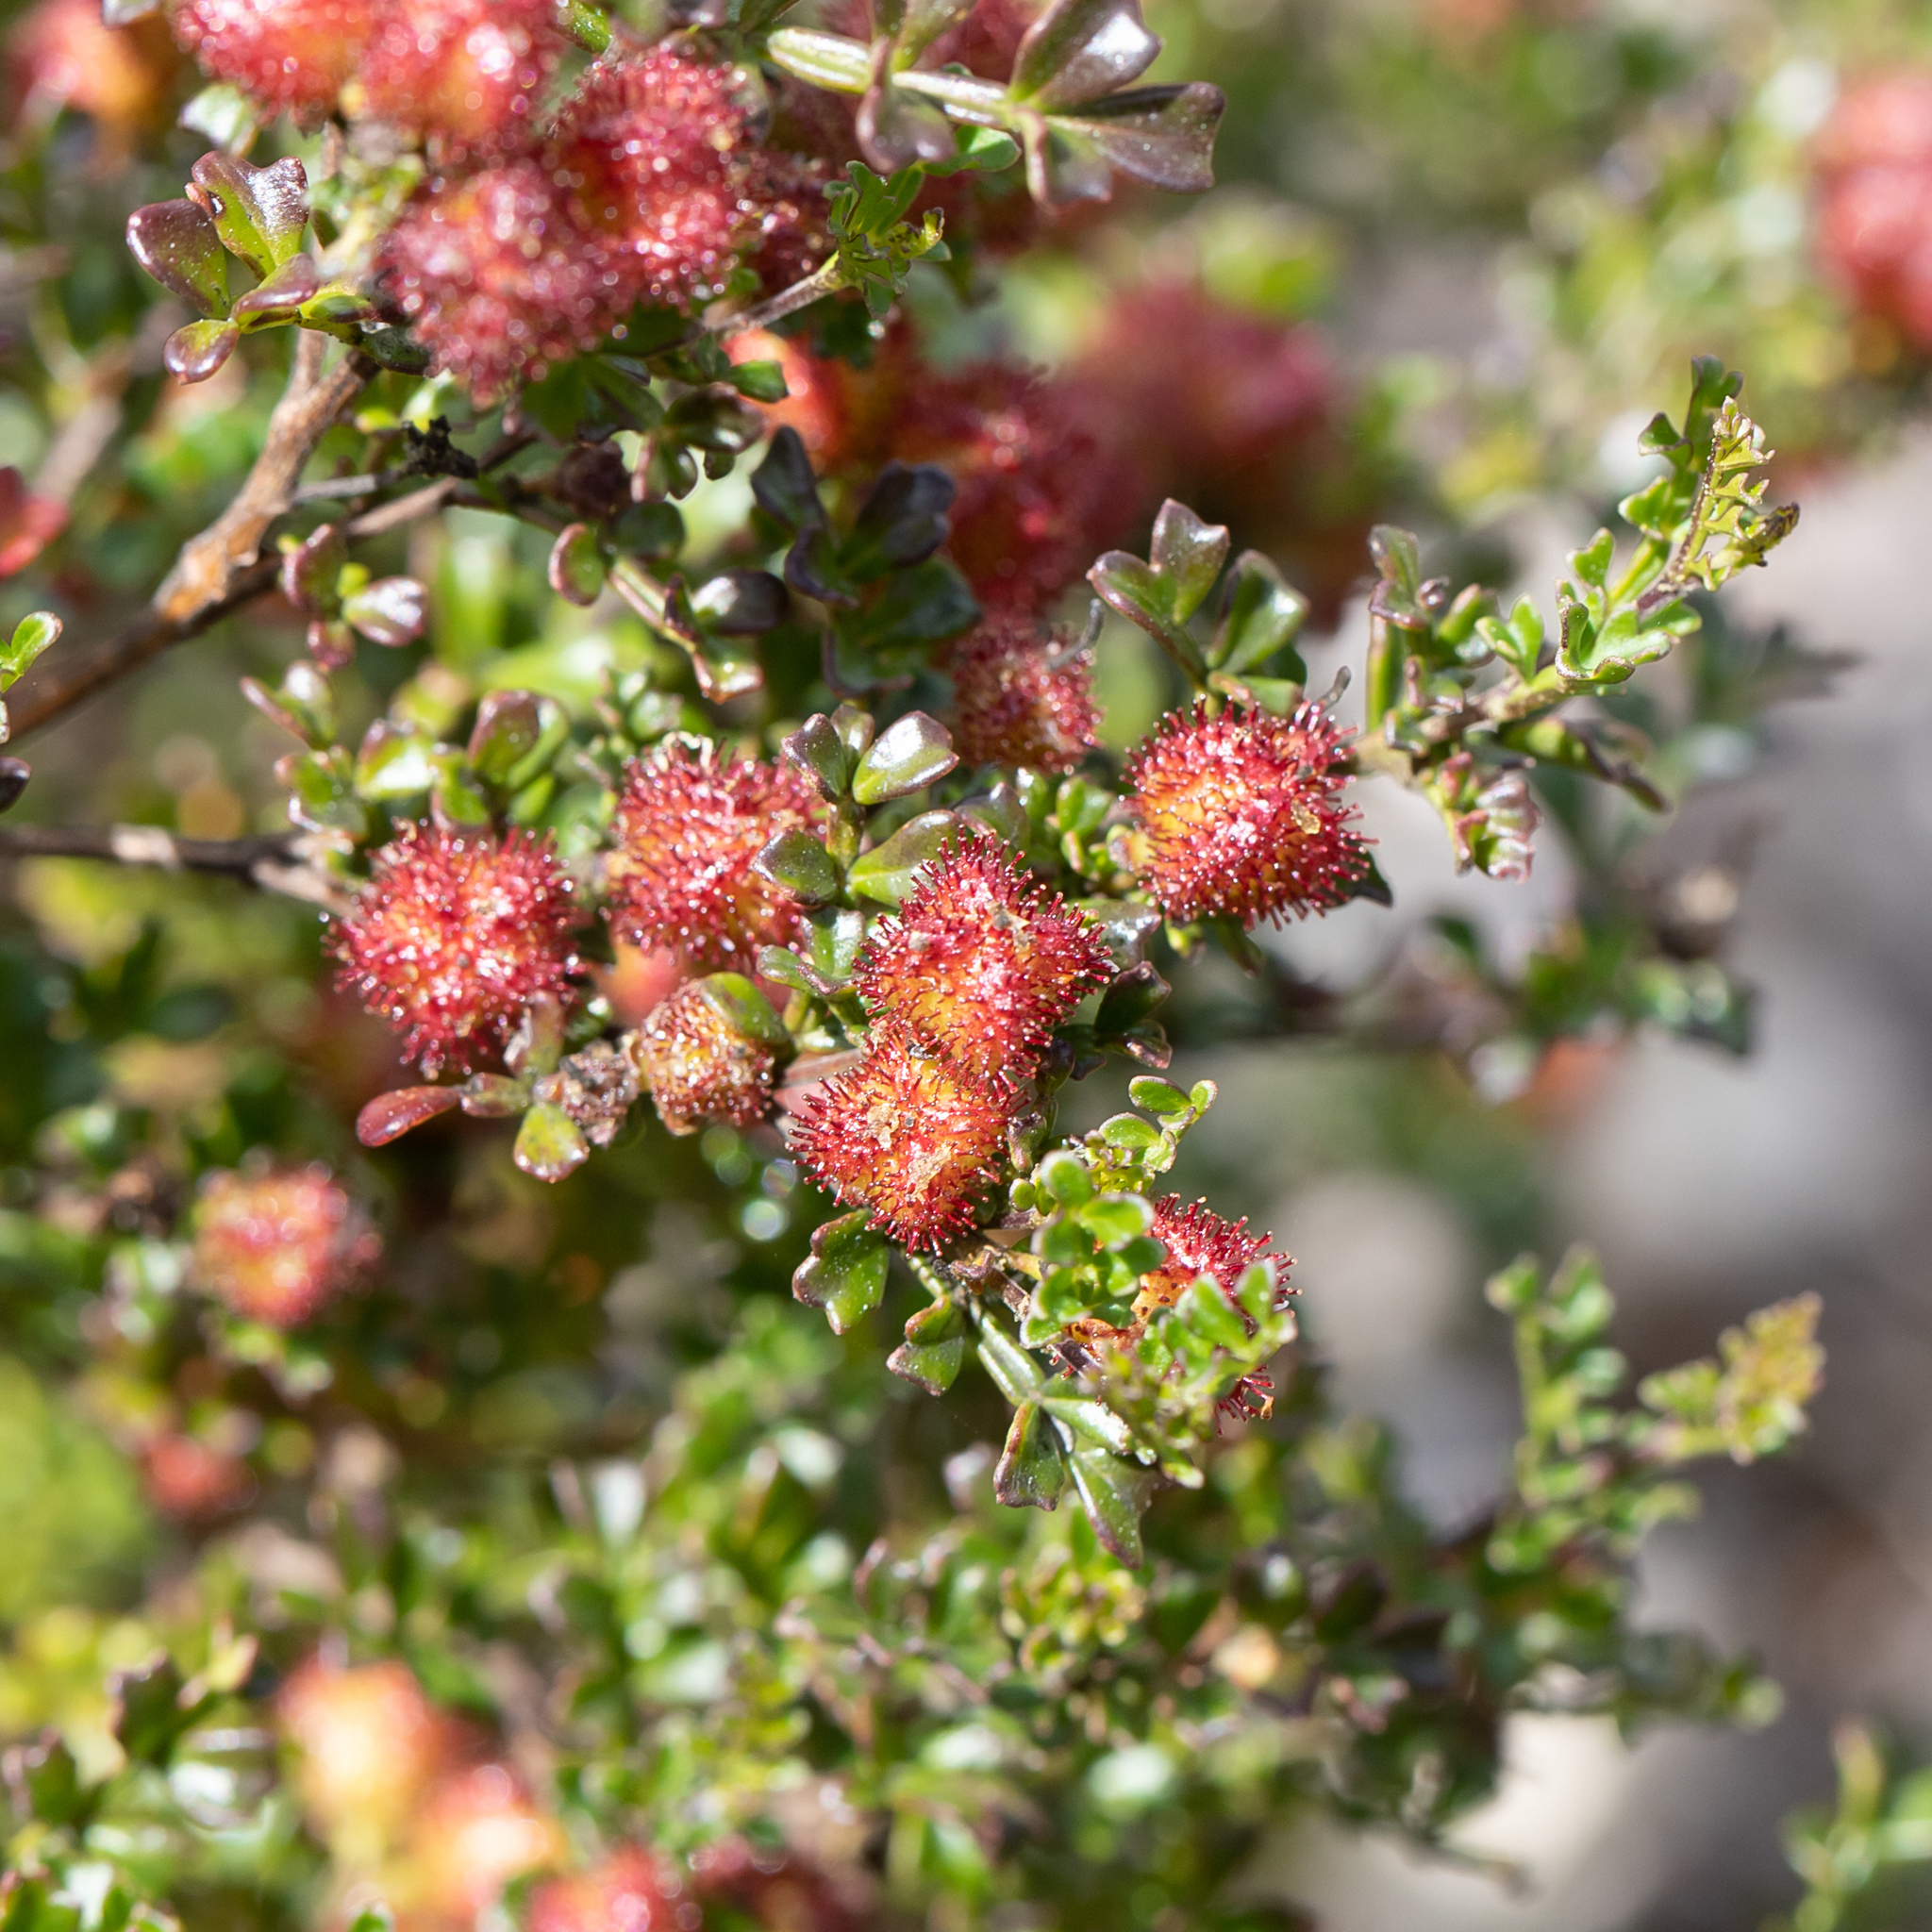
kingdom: Plantae
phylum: Tracheophyta
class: Magnoliopsida
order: Sapindales
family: Sapindaceae
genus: Dodonaea
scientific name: Dodonaea humilis
